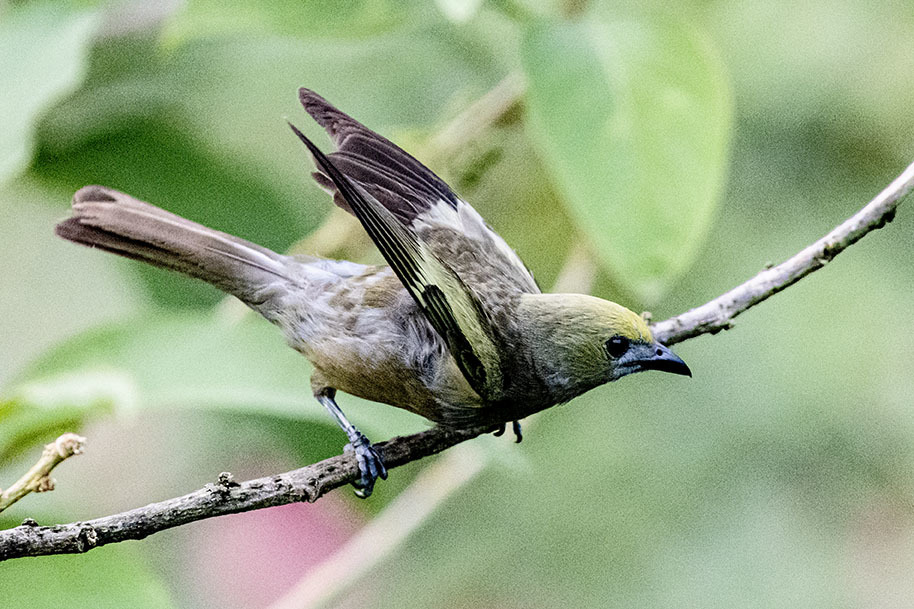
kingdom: Animalia
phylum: Chordata
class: Aves
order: Passeriformes
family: Thraupidae
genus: Thraupis
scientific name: Thraupis palmarum
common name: Palm tanager
